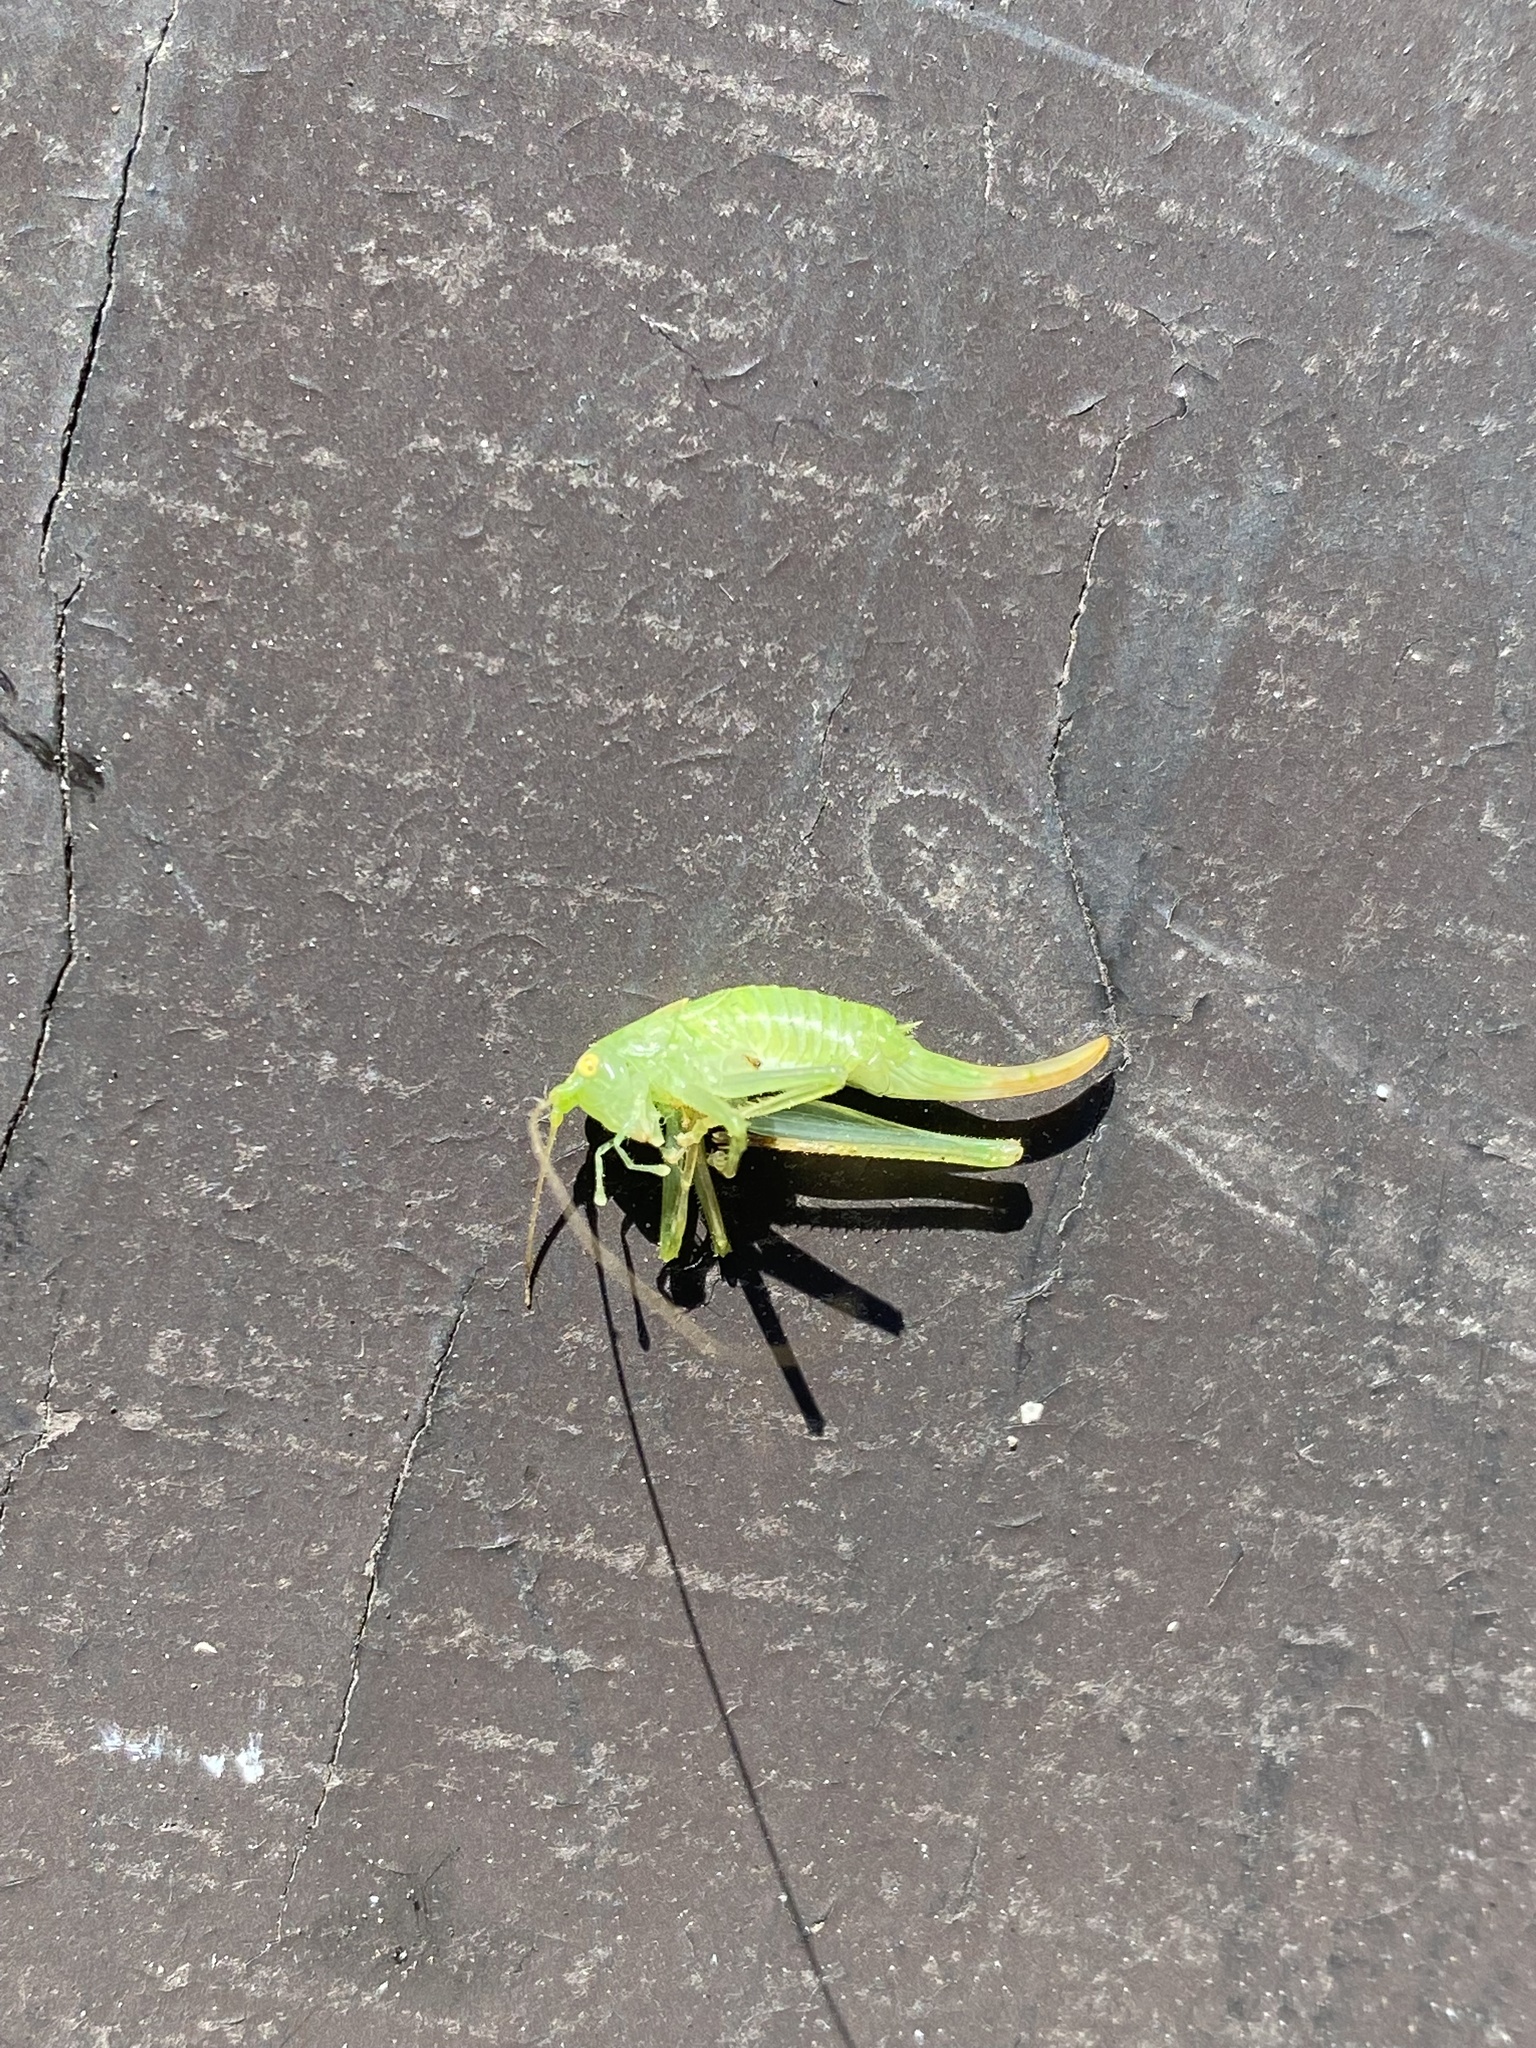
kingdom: Animalia
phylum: Arthropoda
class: Insecta
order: Orthoptera
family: Tettigoniidae
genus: Meconema
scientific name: Meconema meridionale
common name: Southern oak bush-cricket
